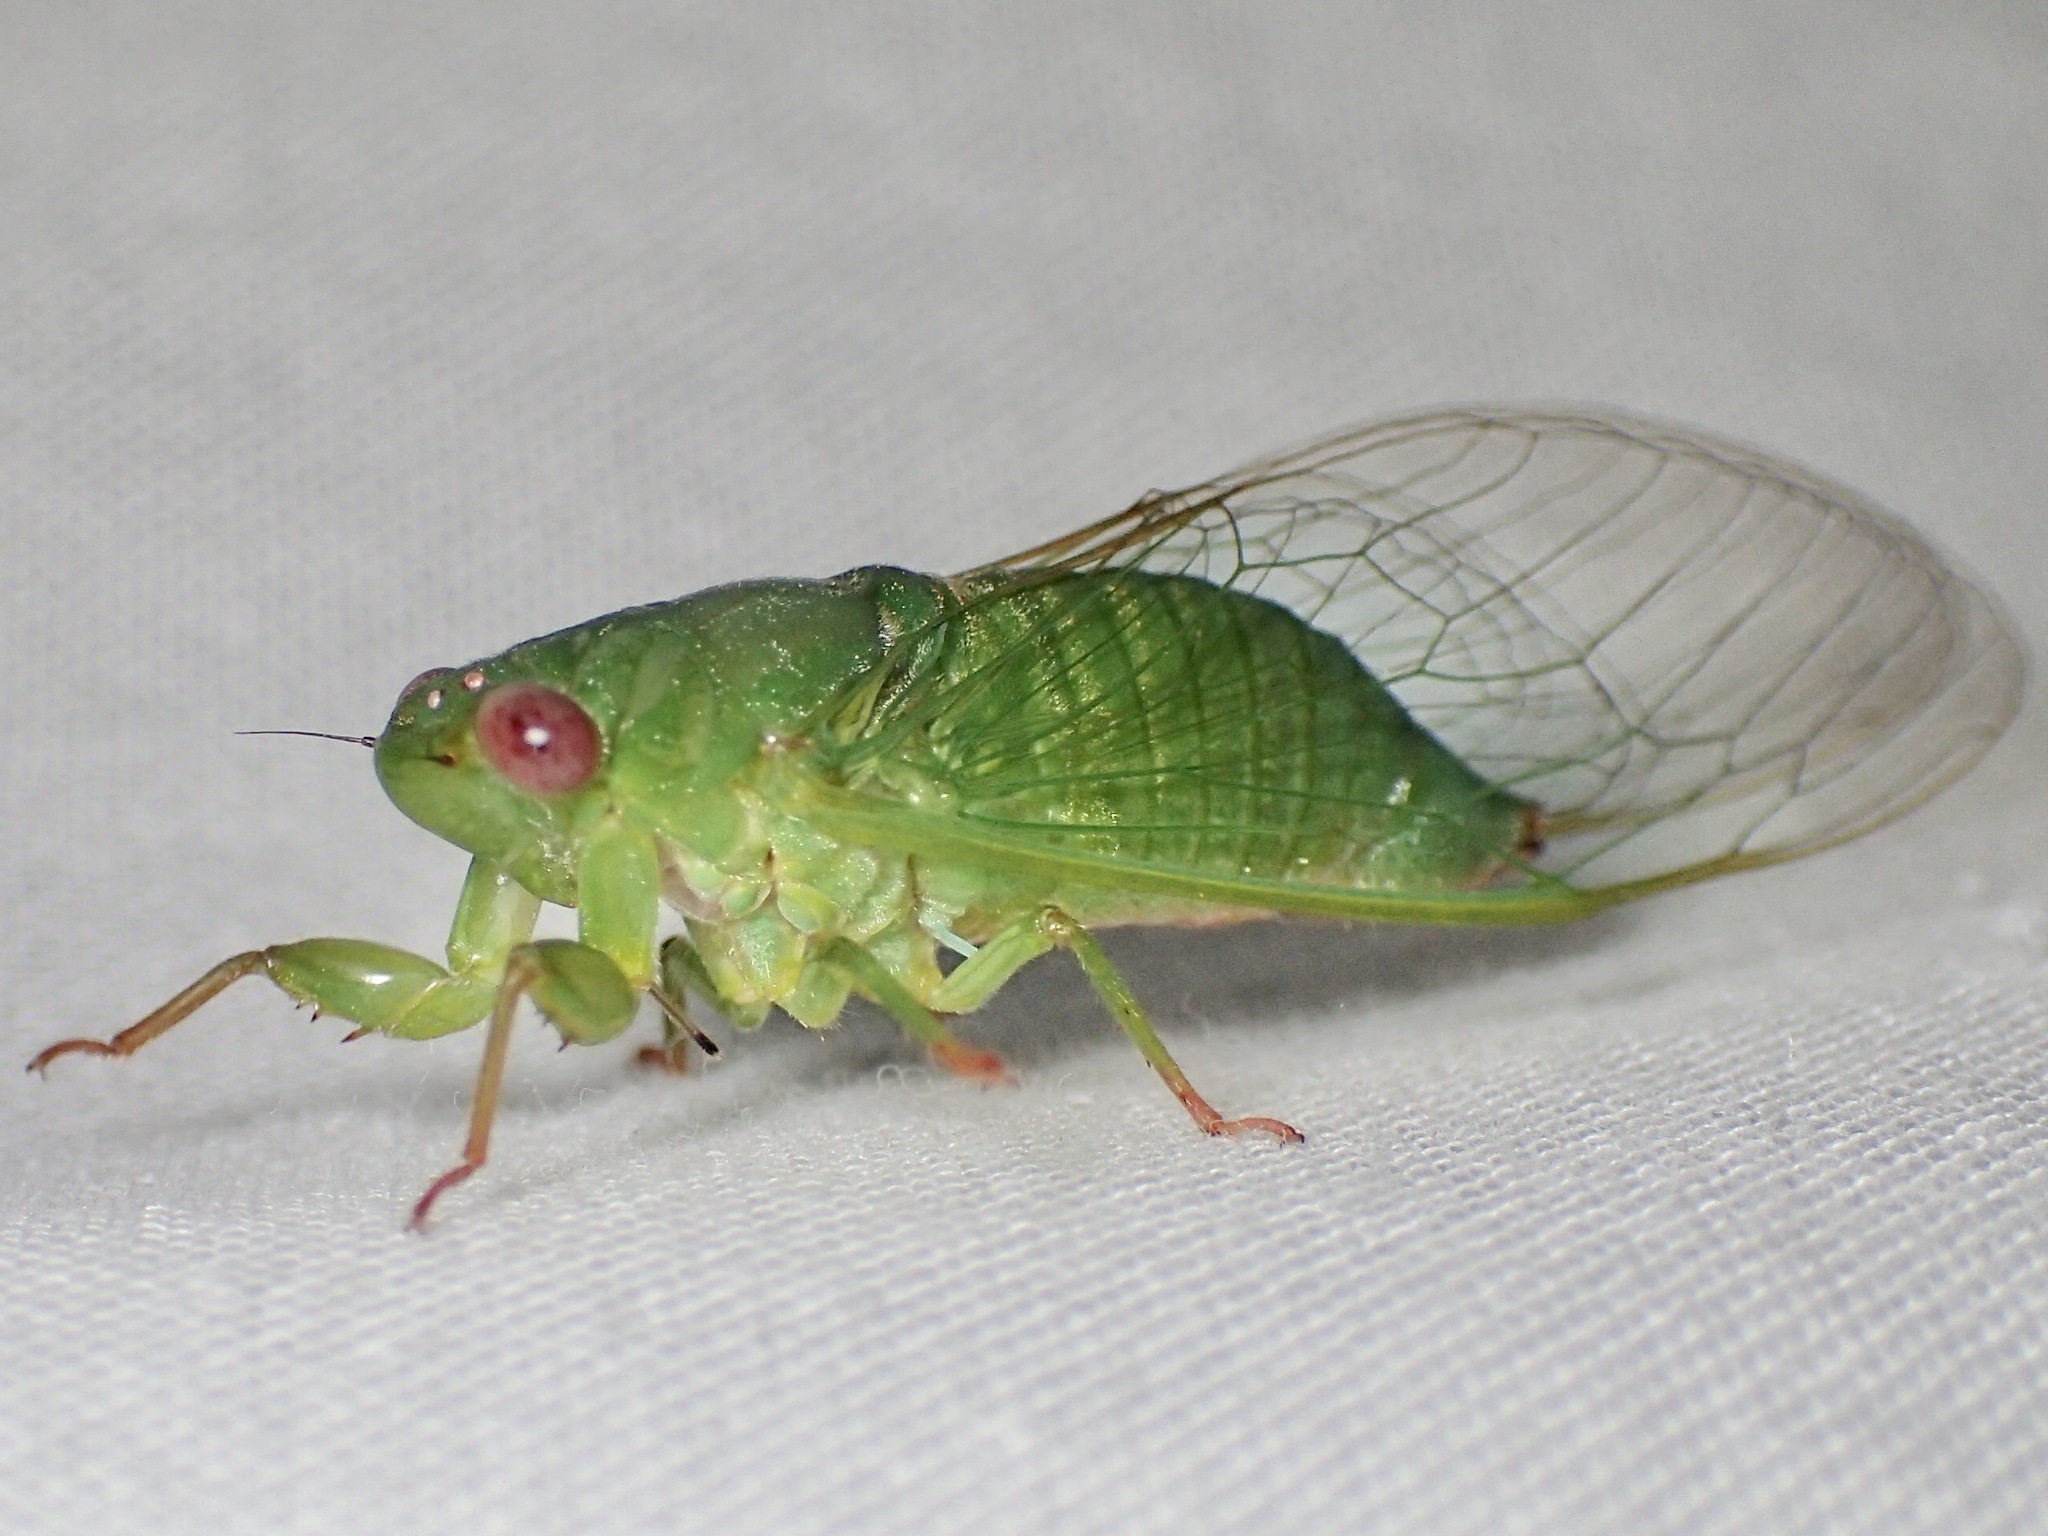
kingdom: Animalia
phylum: Arthropoda
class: Insecta
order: Hemiptera
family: Cicadidae
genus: Gymnotympana
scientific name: Gymnotympana varicolor
